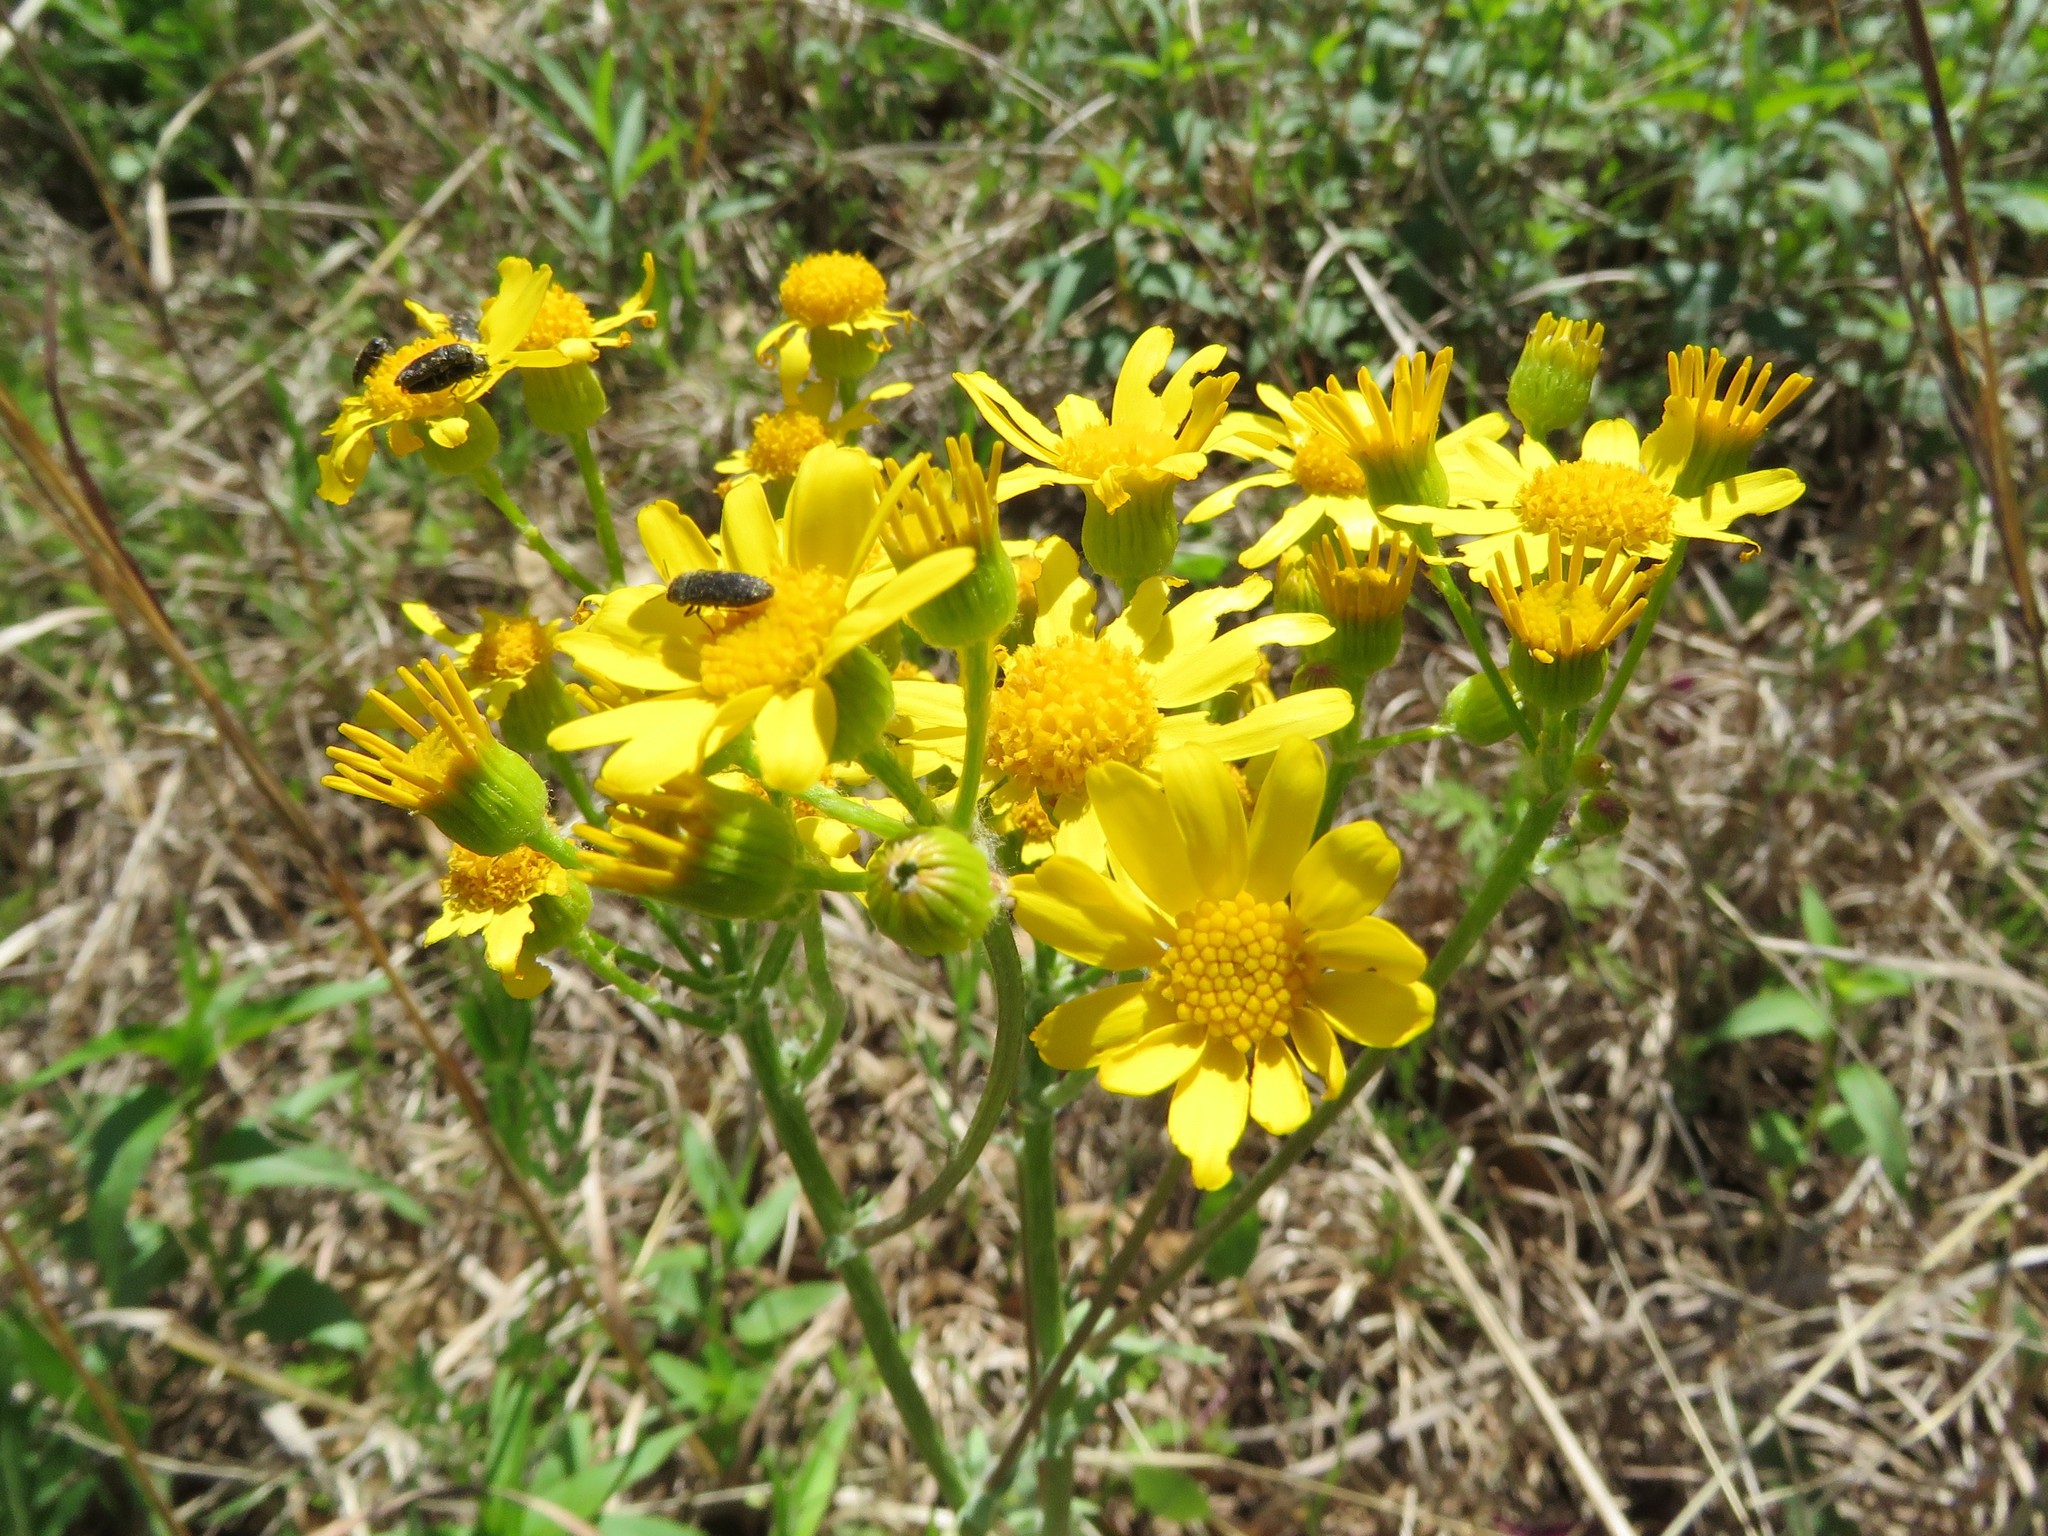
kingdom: Plantae
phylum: Tracheophyta
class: Magnoliopsida
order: Asterales
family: Asteraceae
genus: Packera
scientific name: Packera plattensis
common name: Prairie groundsel
